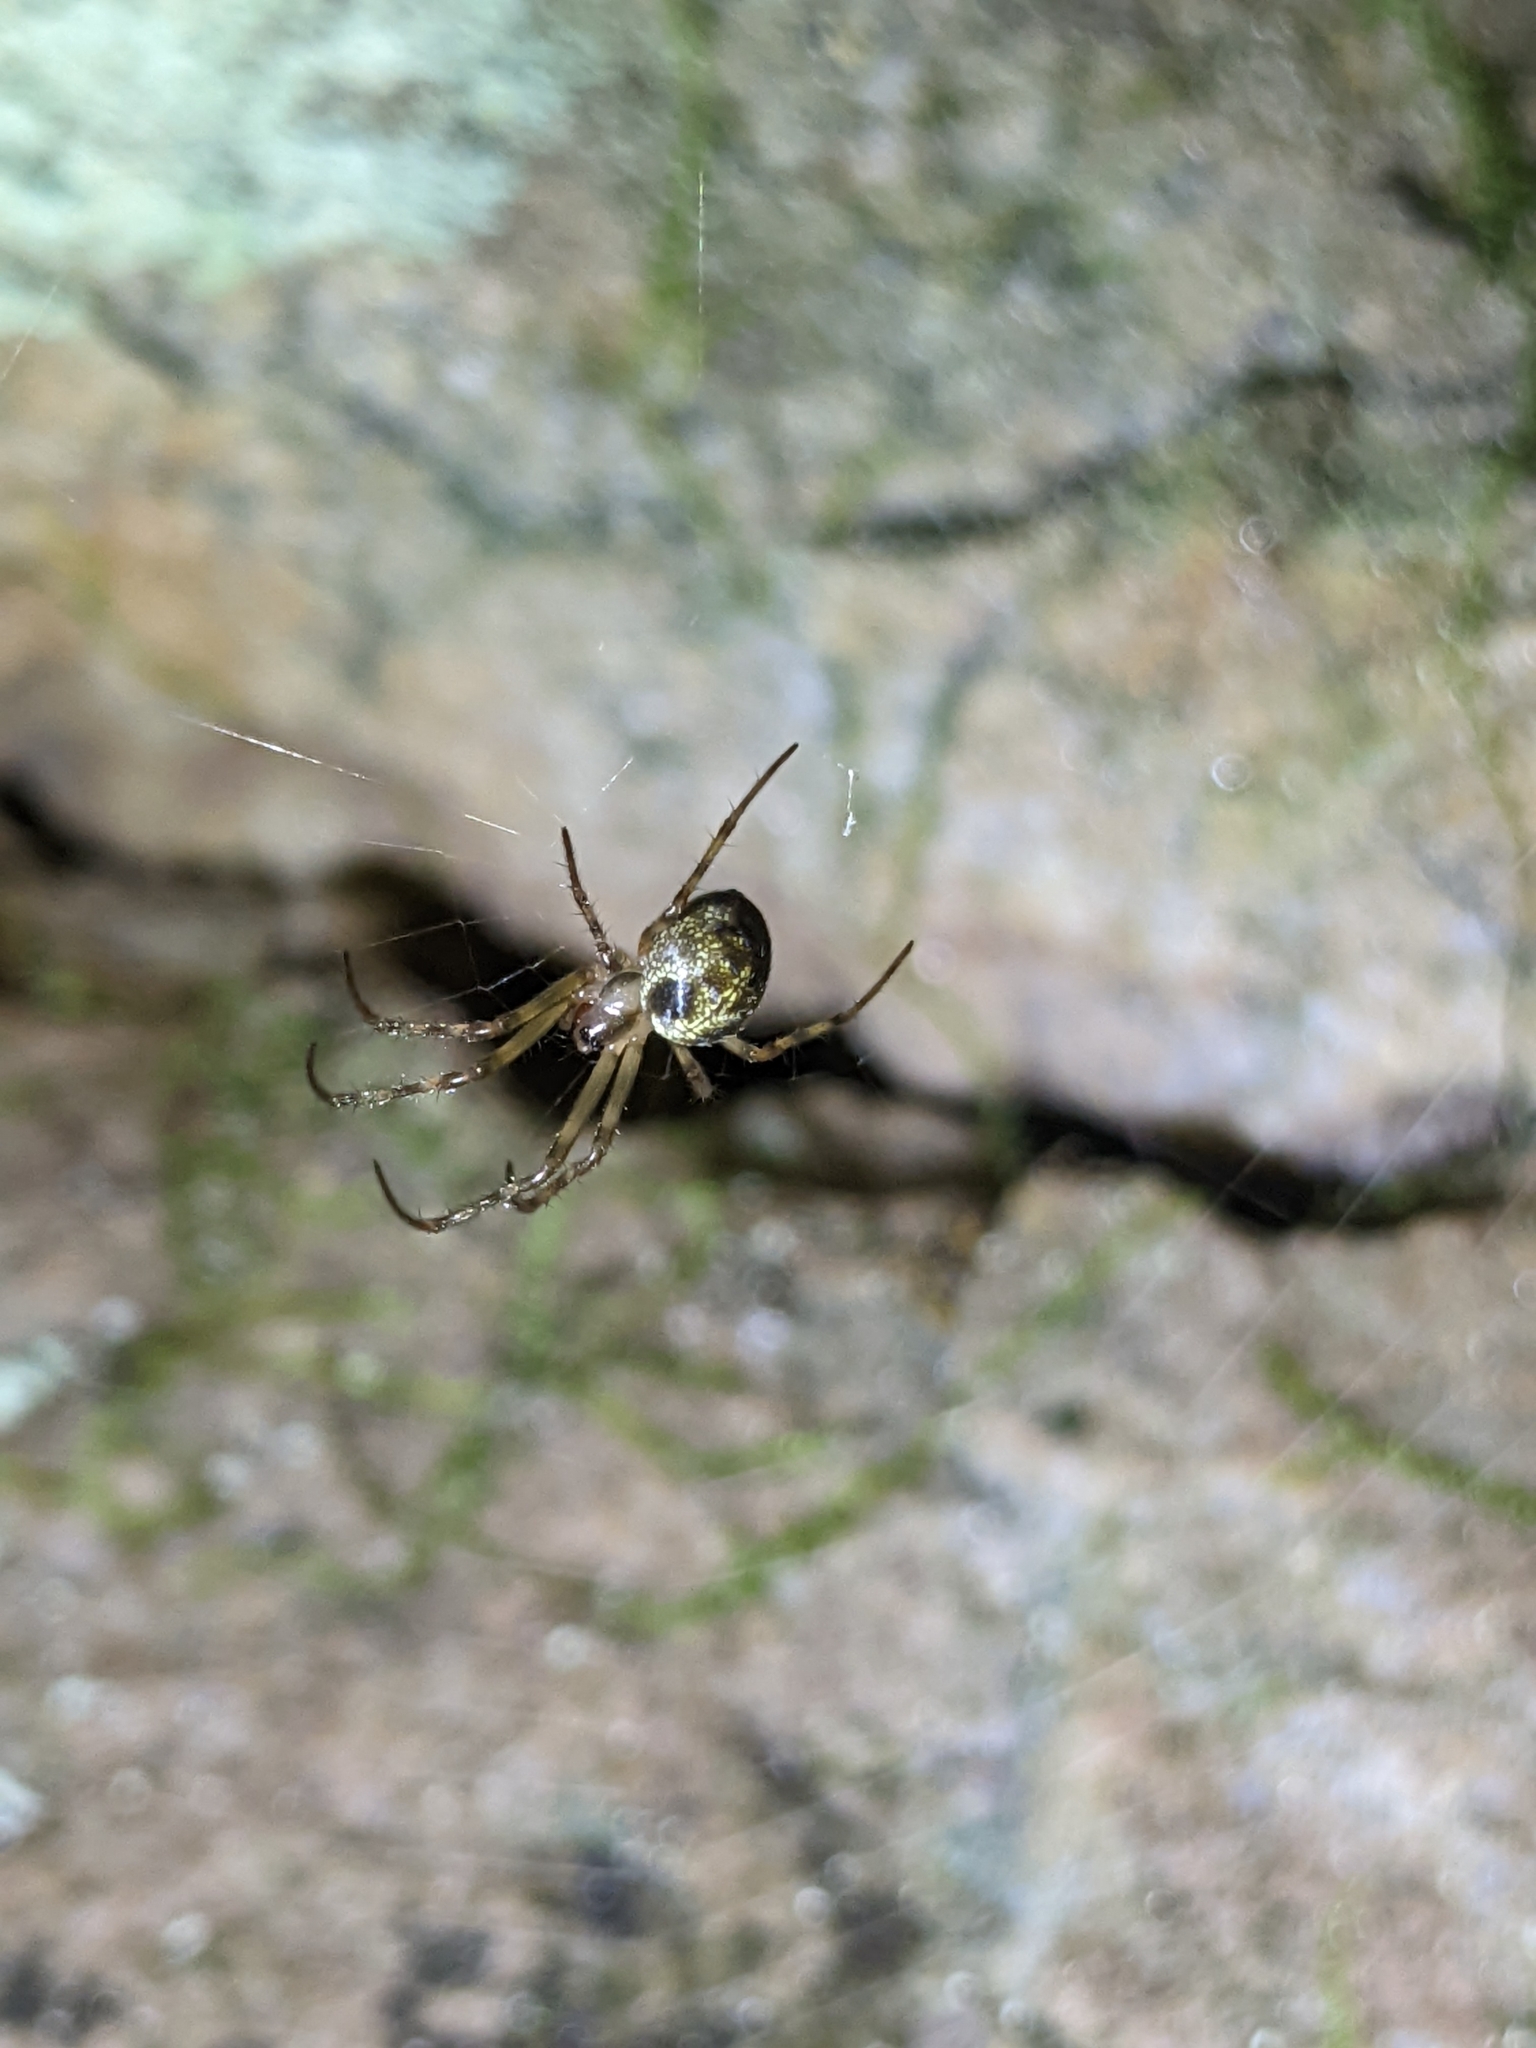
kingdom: Animalia
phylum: Arthropoda
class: Arachnida
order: Araneae
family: Tetragnathidae
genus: Meta
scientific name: Meta ovalis
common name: Eastern cave long-jawed spider
